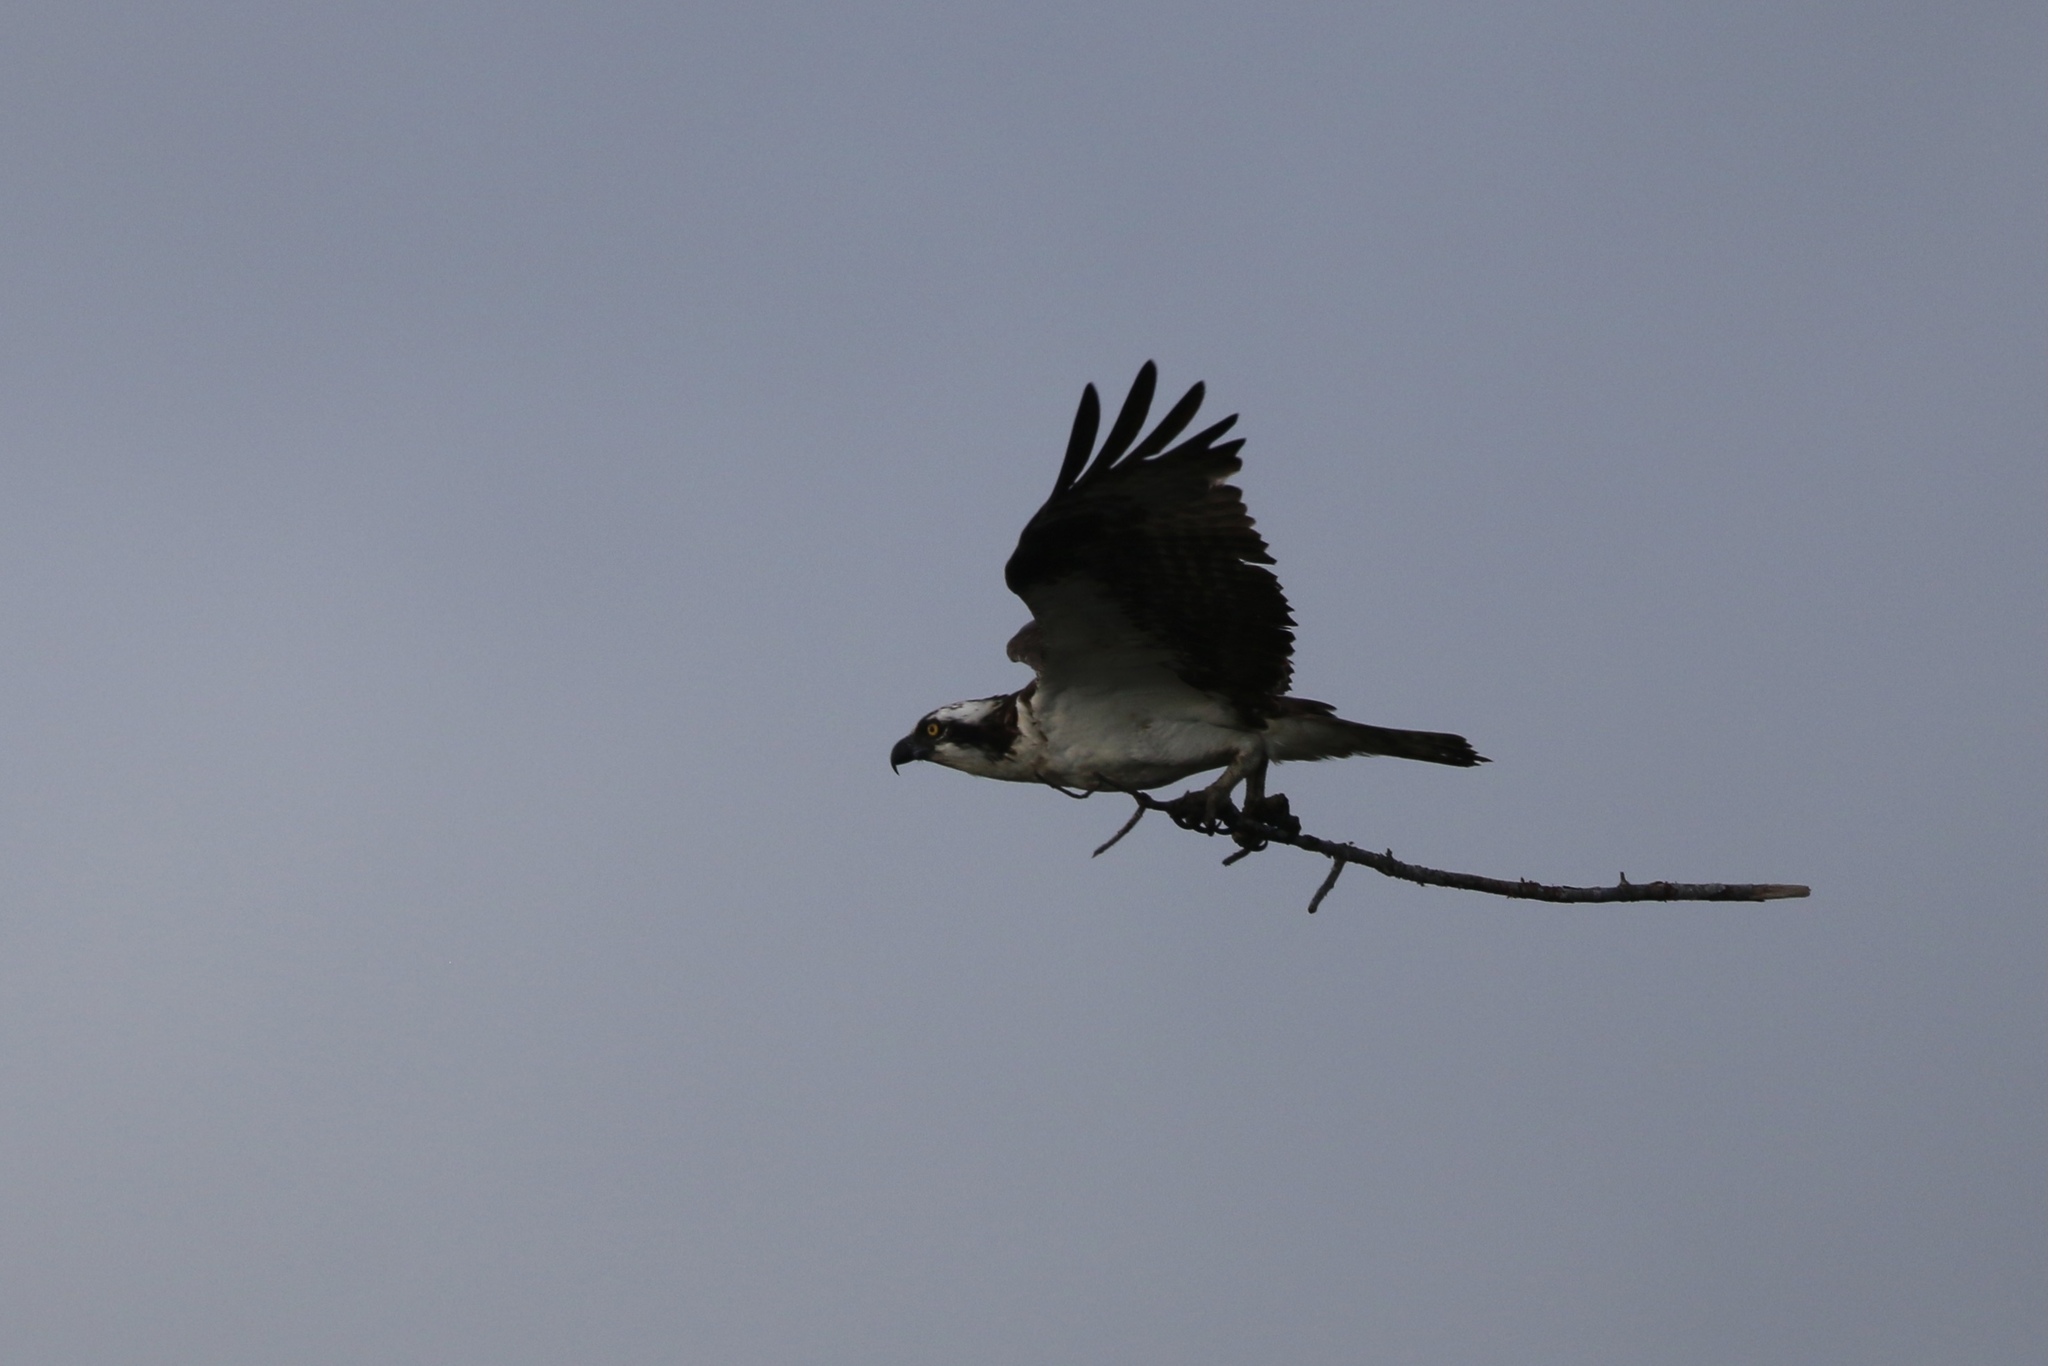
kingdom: Animalia
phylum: Chordata
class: Aves
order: Accipitriformes
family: Pandionidae
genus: Pandion
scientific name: Pandion haliaetus
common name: Osprey
